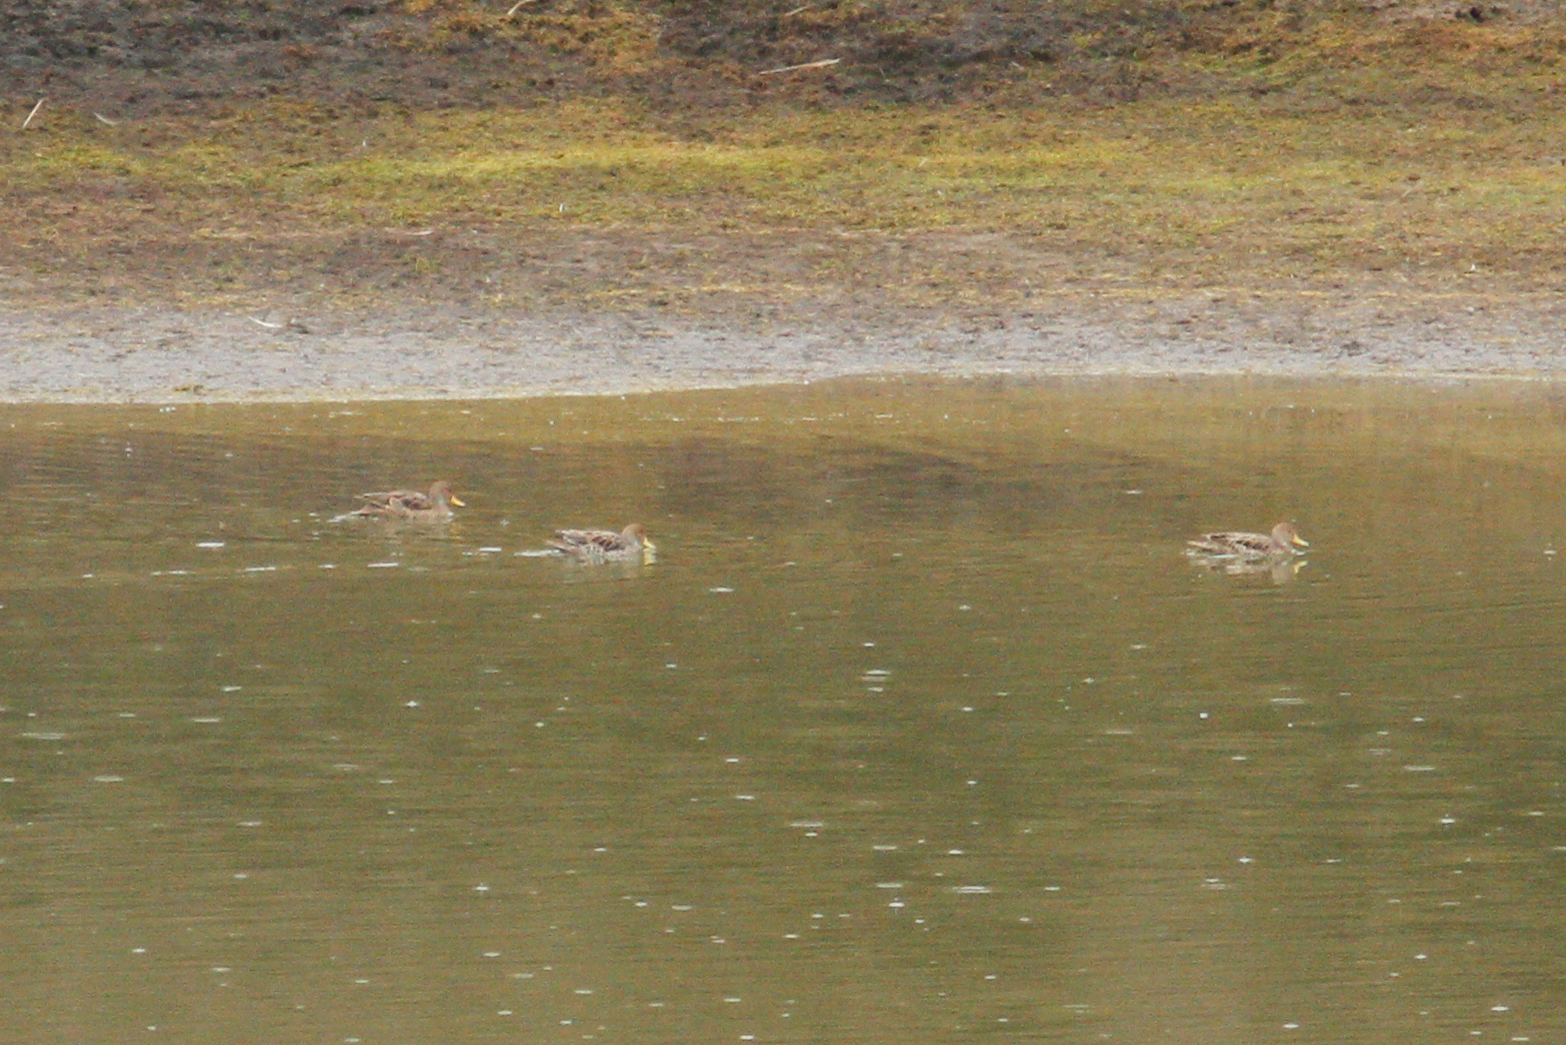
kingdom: Animalia
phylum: Chordata
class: Aves
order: Anseriformes
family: Anatidae
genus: Anas
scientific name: Anas georgica
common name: Yellow-billed pintail
